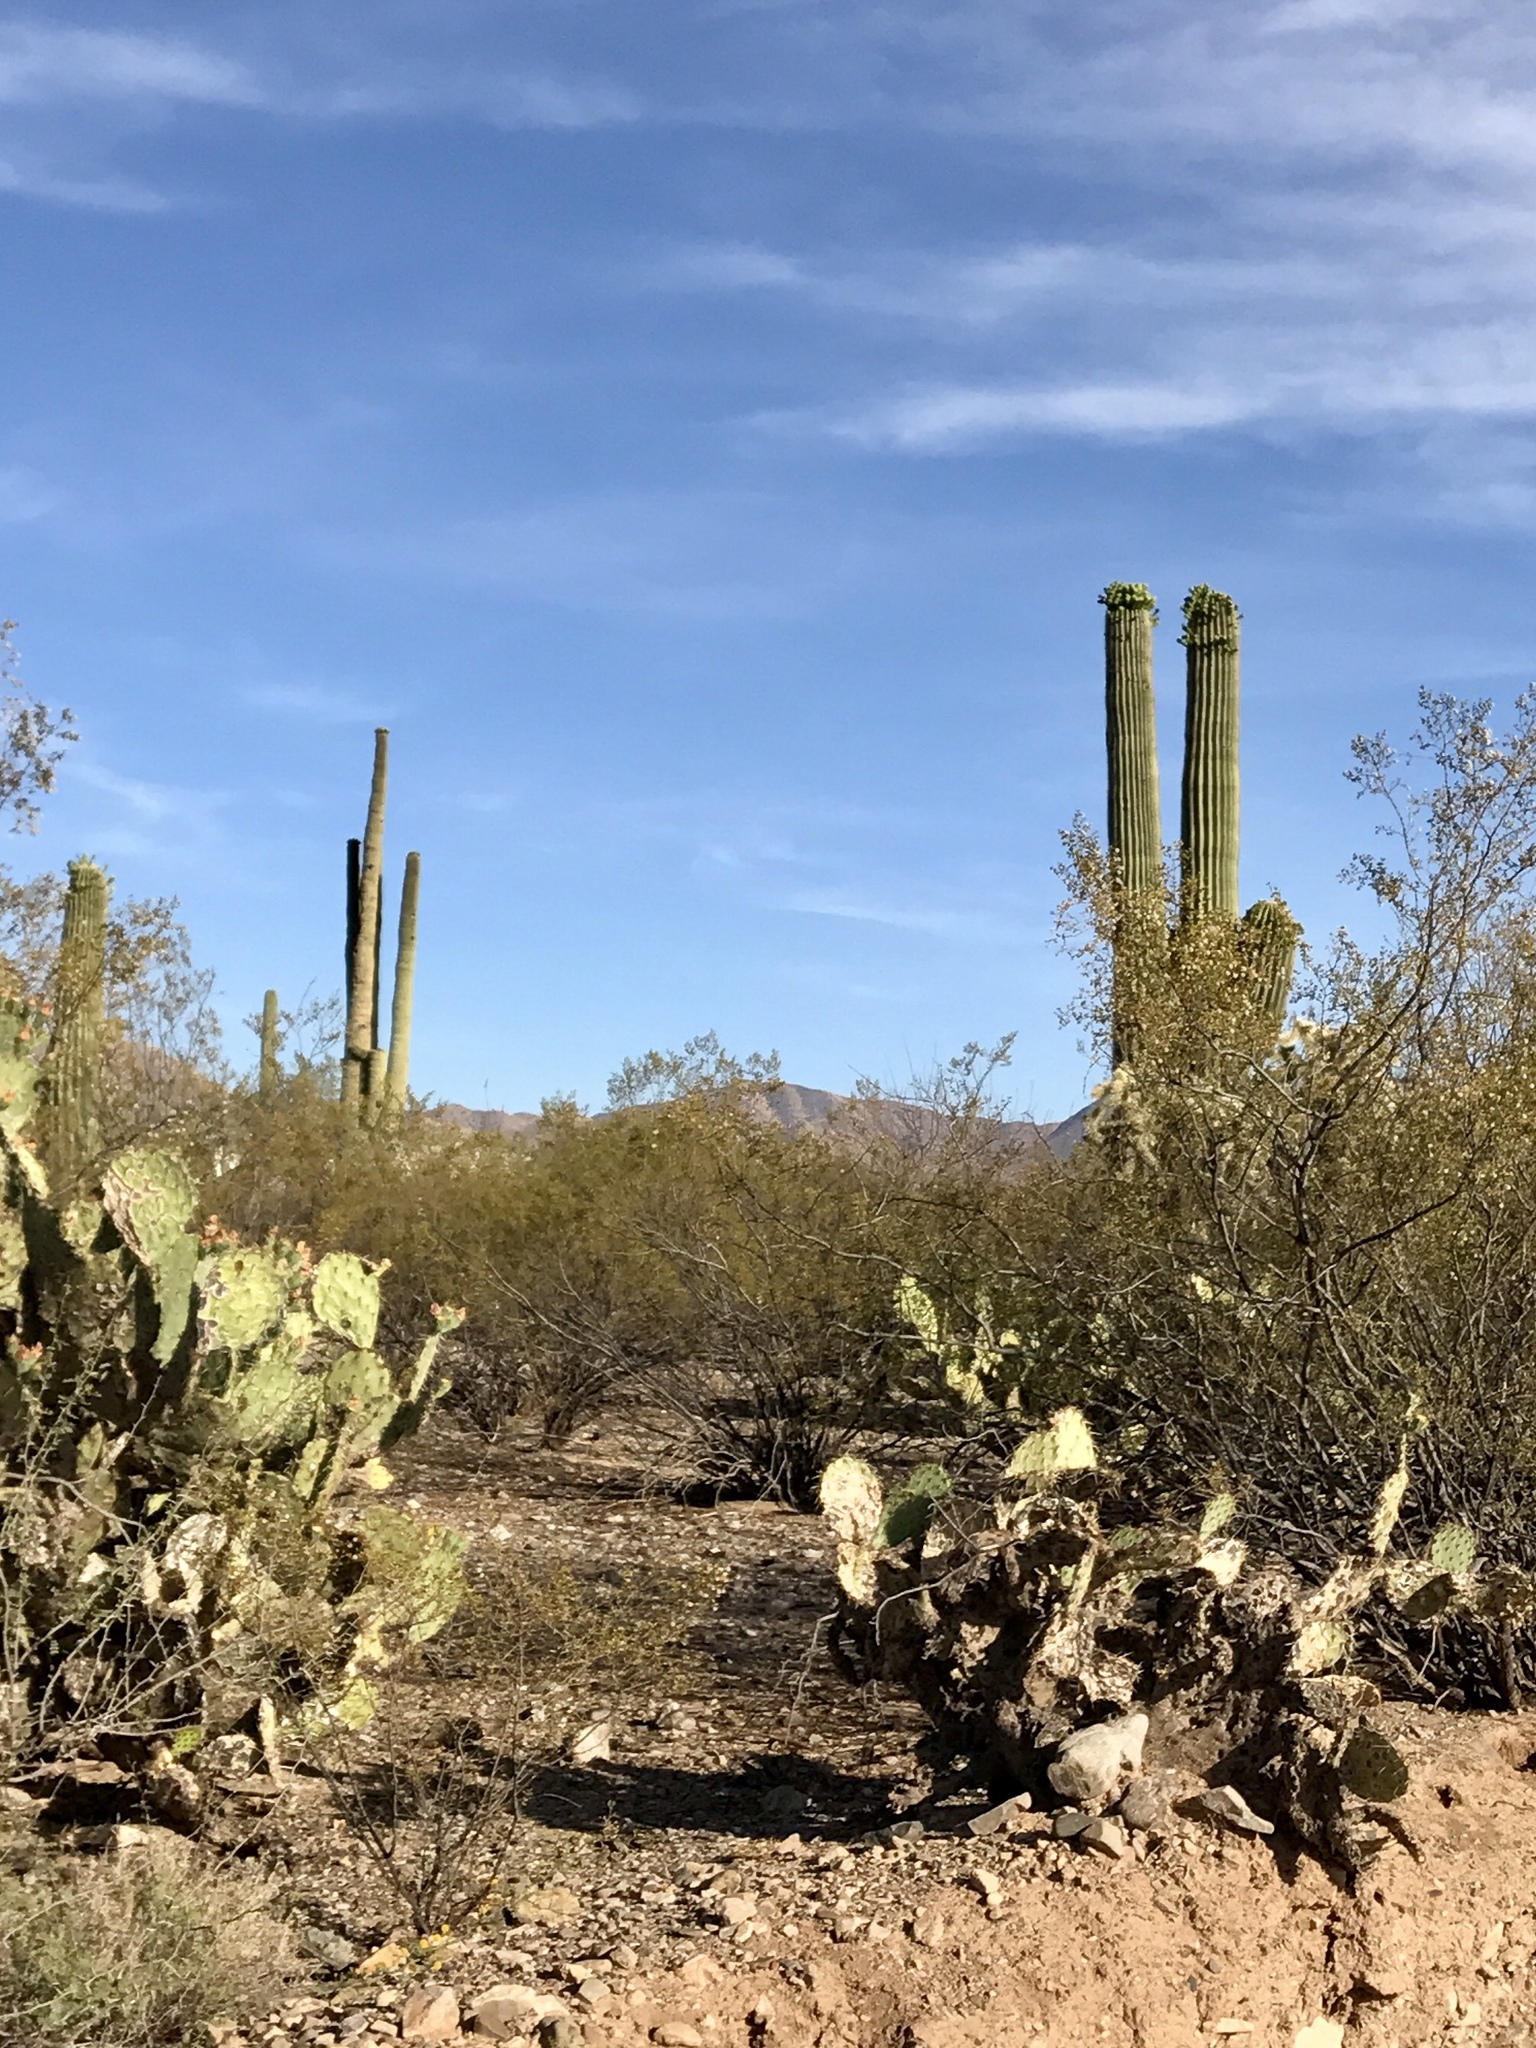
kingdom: Plantae
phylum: Tracheophyta
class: Magnoliopsida
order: Caryophyllales
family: Cactaceae
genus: Carnegiea
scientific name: Carnegiea gigantea
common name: Saguaro
